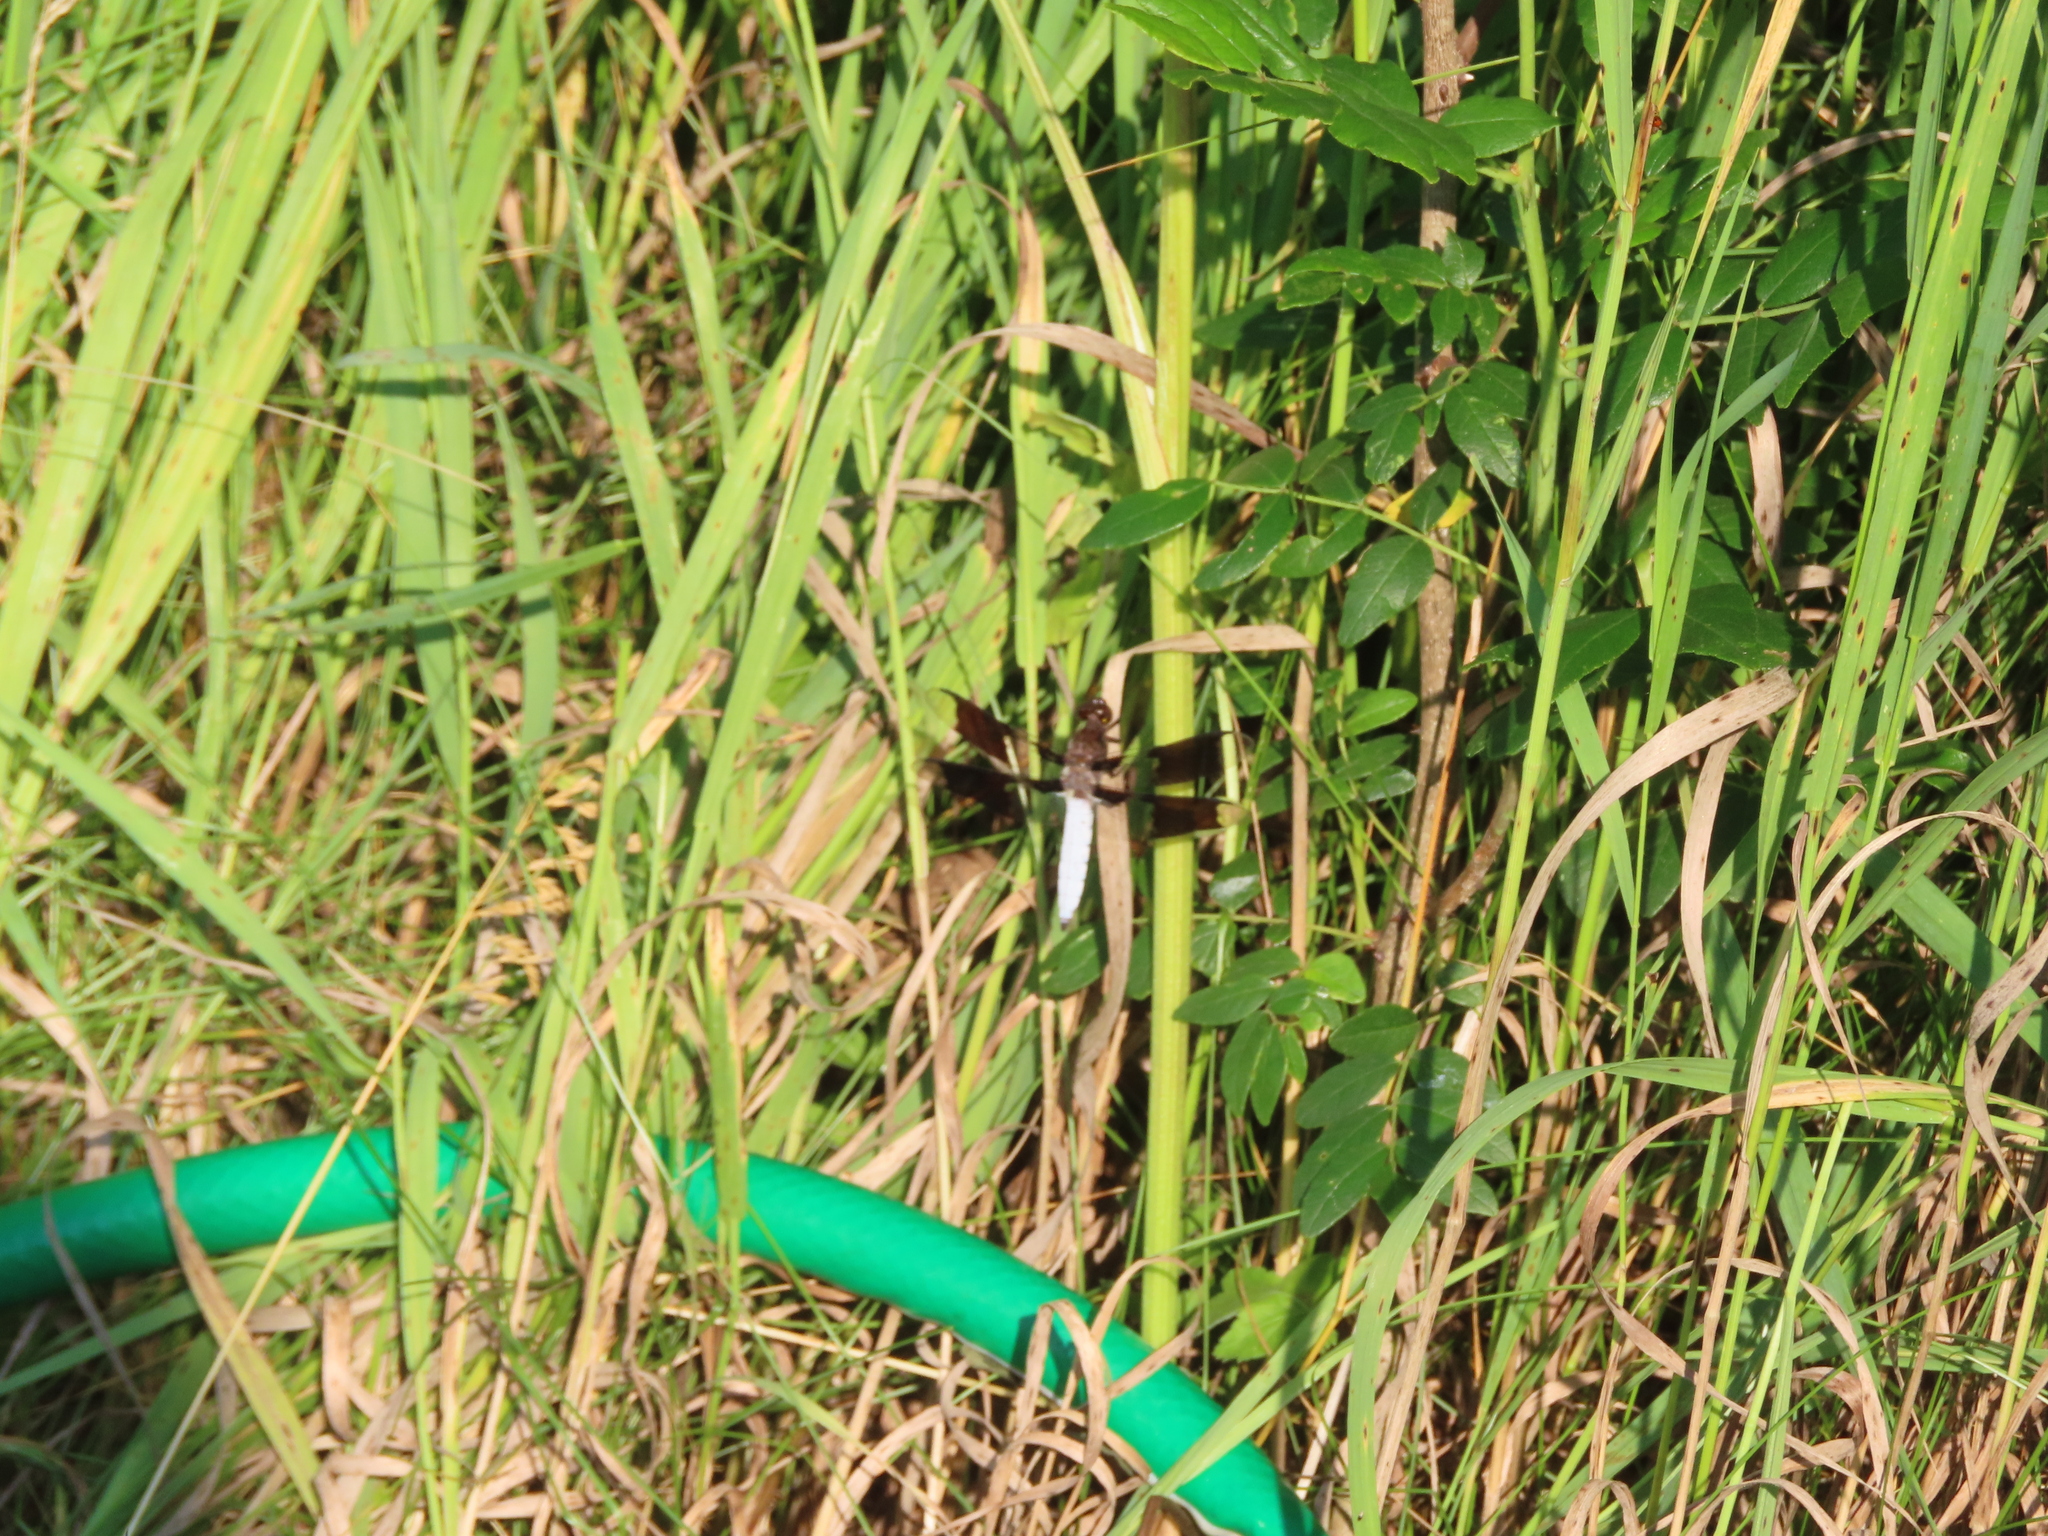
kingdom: Animalia
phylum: Arthropoda
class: Insecta
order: Odonata
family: Libellulidae
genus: Plathemis
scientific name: Plathemis lydia
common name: Common whitetail
